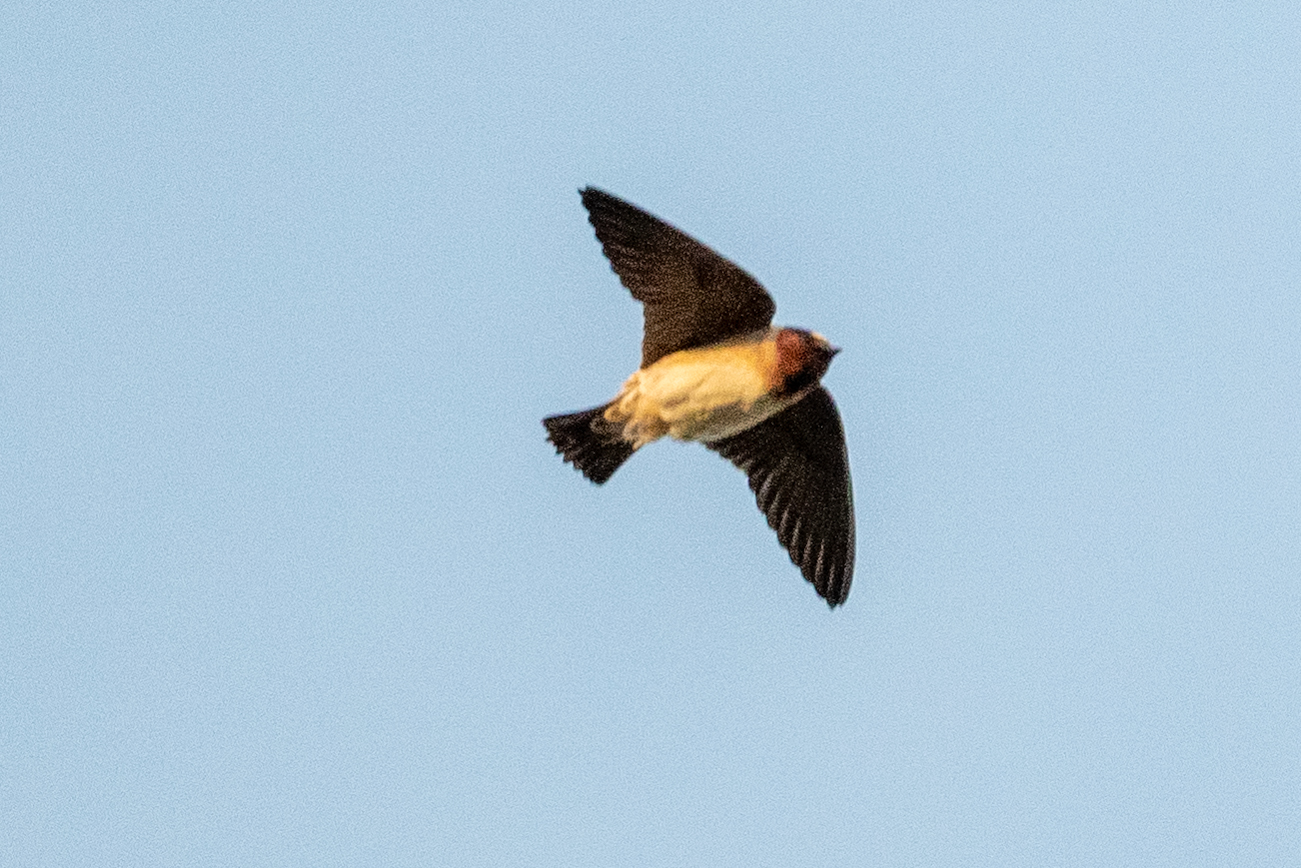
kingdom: Animalia
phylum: Chordata
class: Aves
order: Passeriformes
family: Hirundinidae
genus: Petrochelidon
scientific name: Petrochelidon pyrrhonota
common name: American cliff swallow
